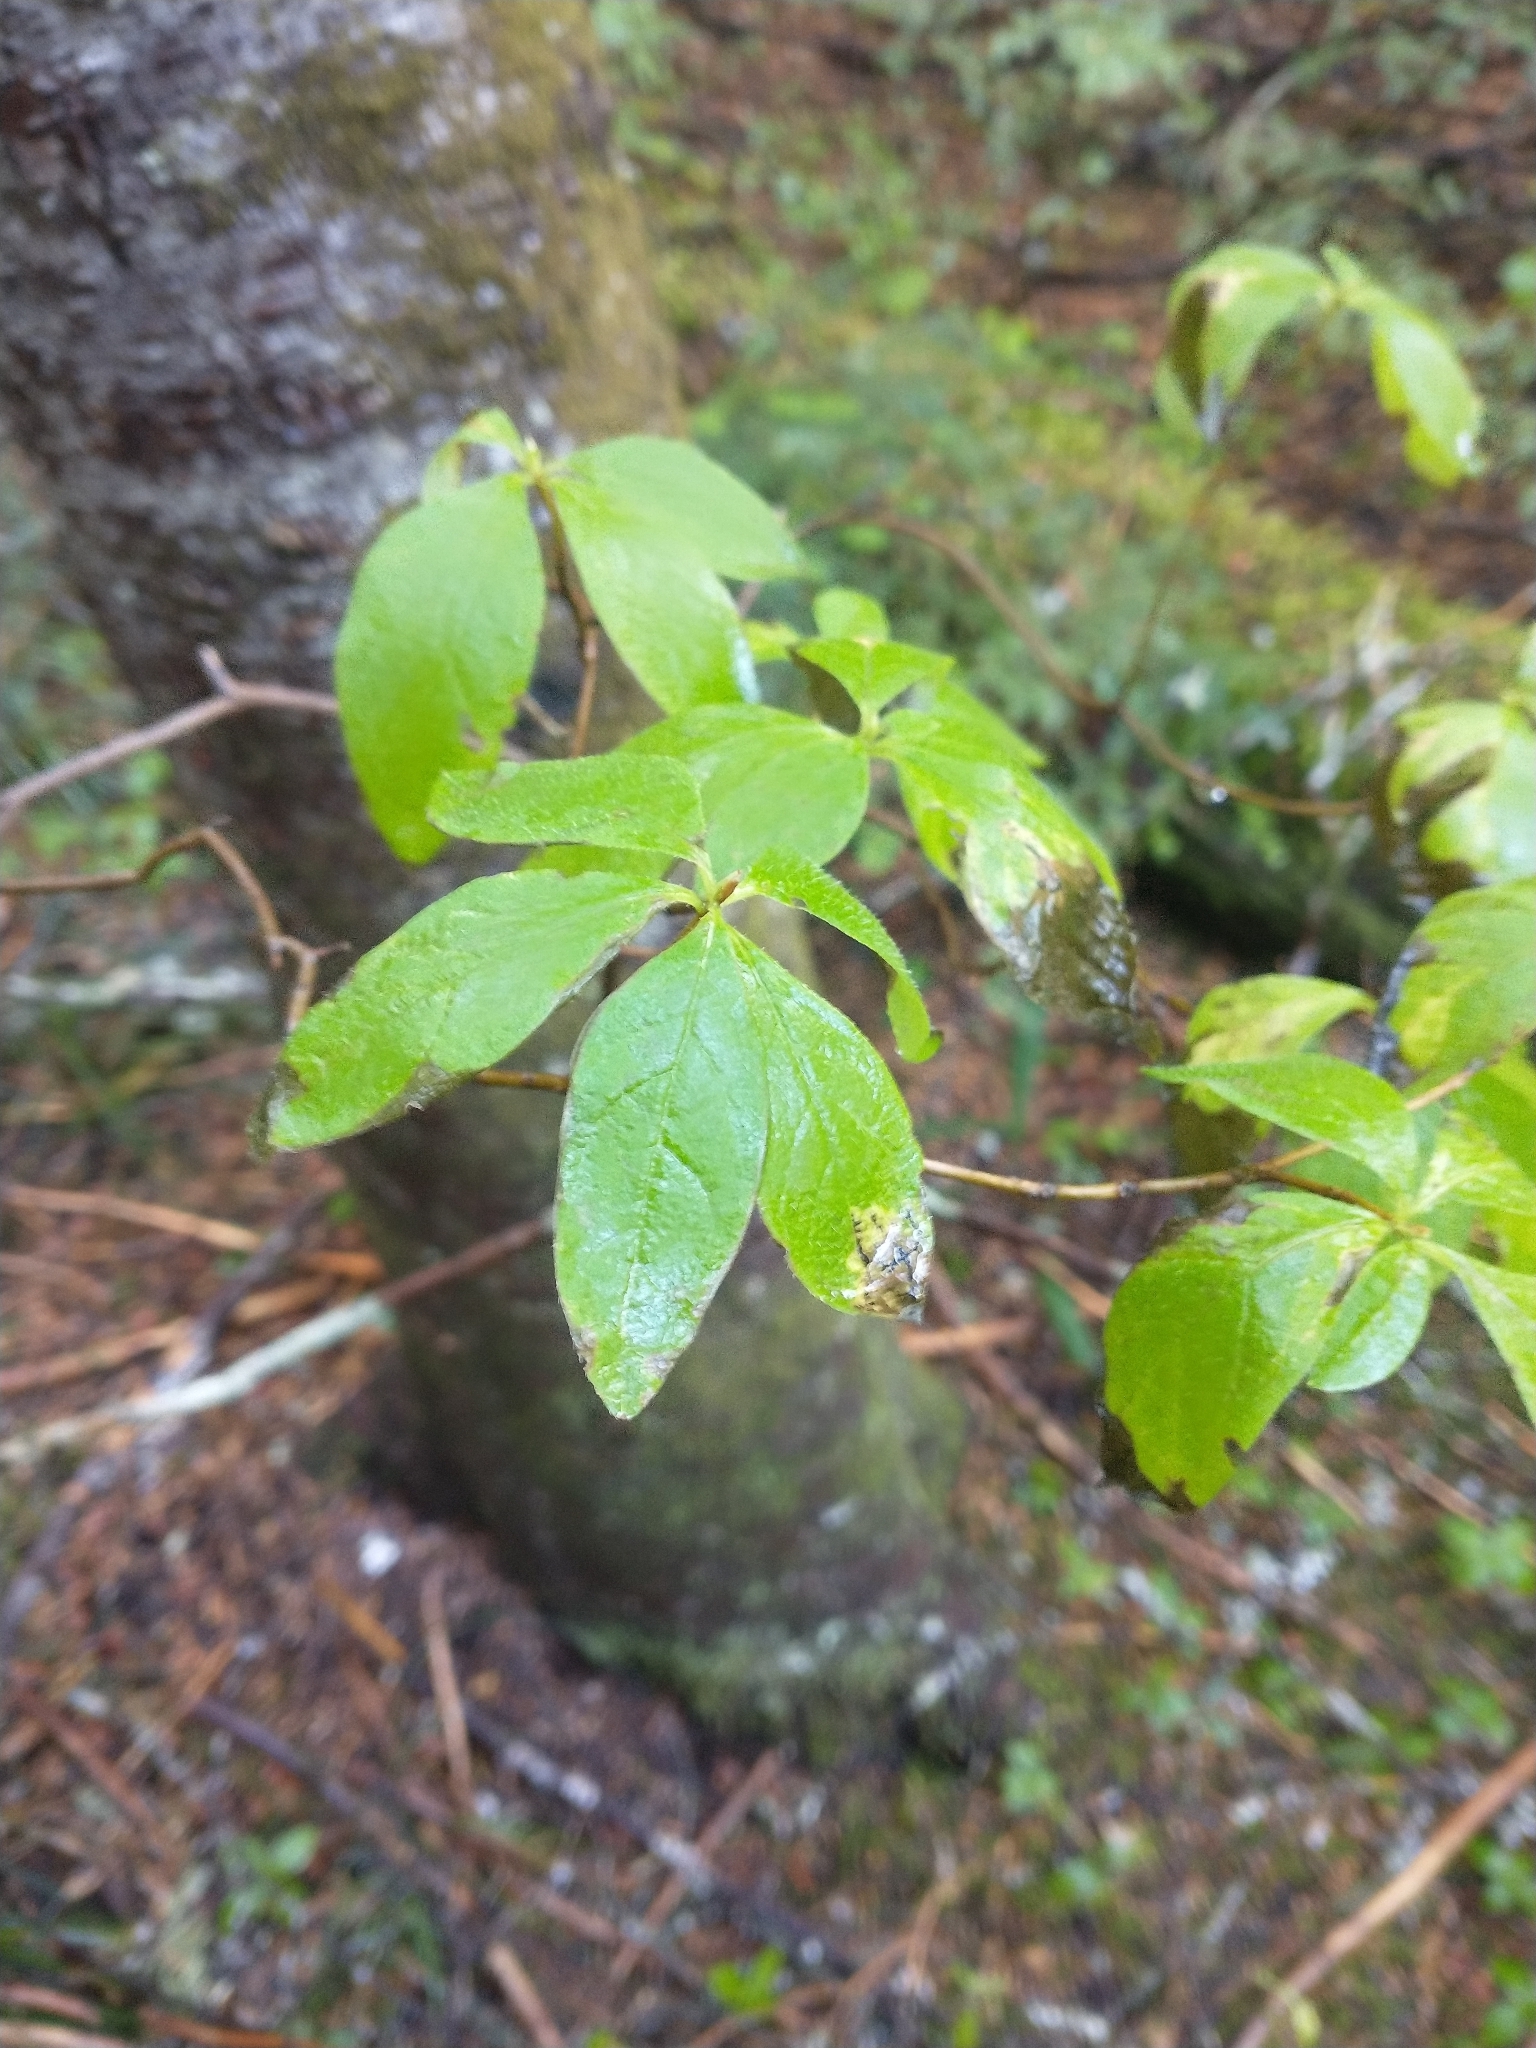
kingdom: Plantae
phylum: Tracheophyta
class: Magnoliopsida
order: Ericales
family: Ericaceae
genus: Rhododendron
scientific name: Rhododendron menziesii
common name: Pacific menziesia
